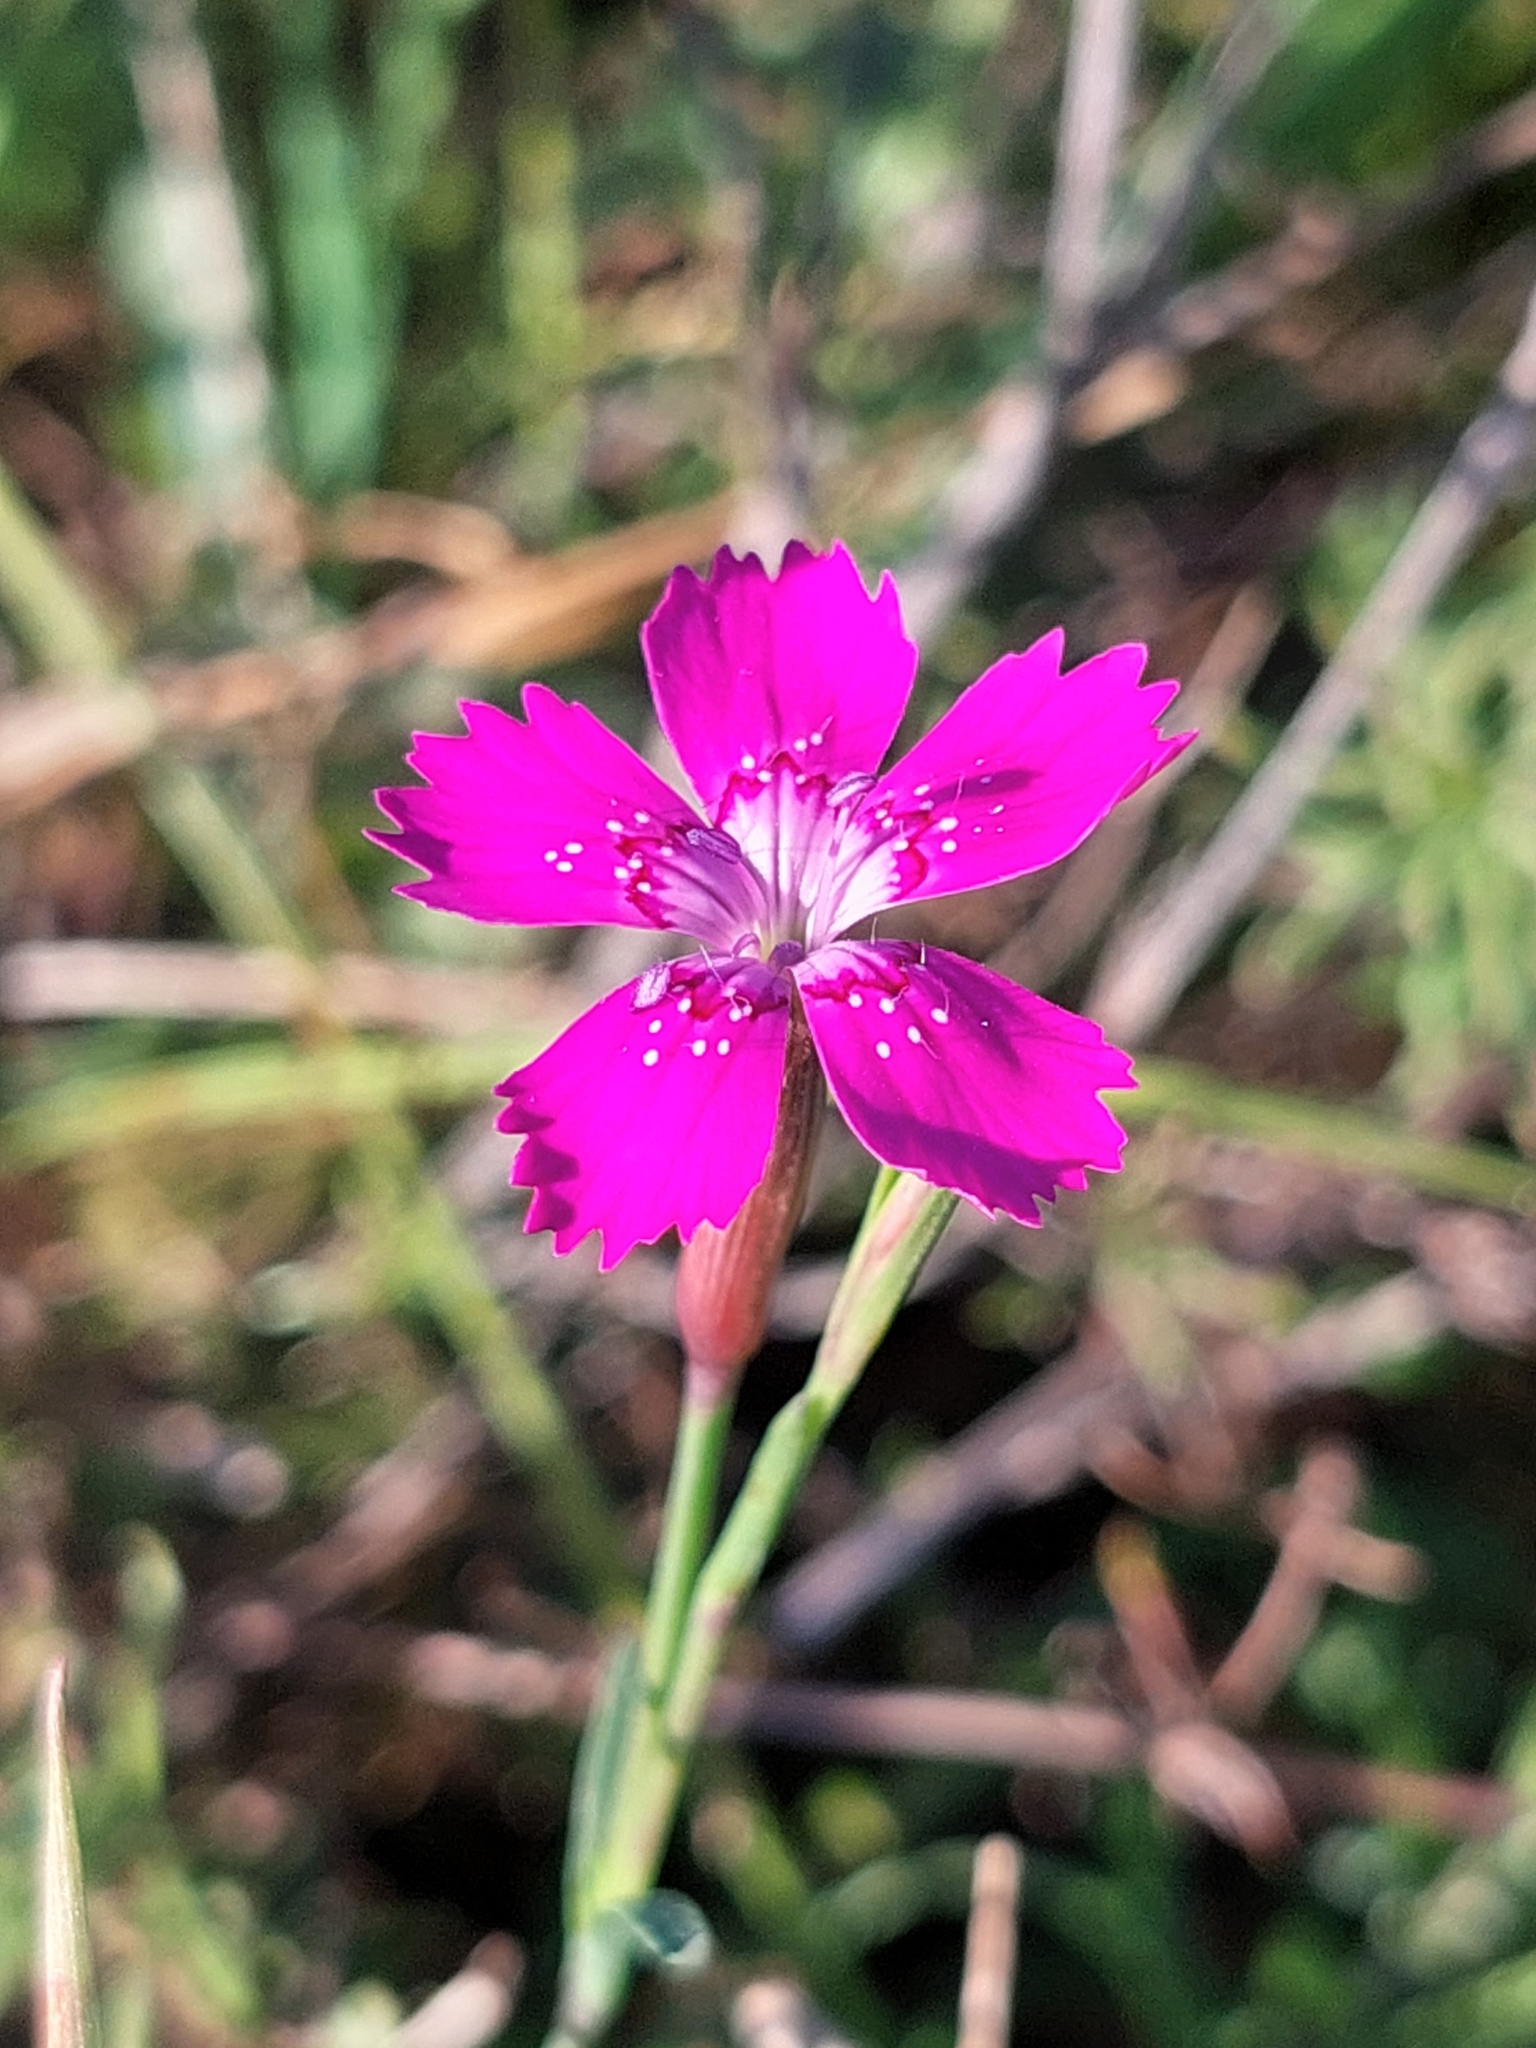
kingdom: Plantae
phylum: Tracheophyta
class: Magnoliopsida
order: Caryophyllales
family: Caryophyllaceae
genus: Dianthus
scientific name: Dianthus deltoides
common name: Maiden pink
